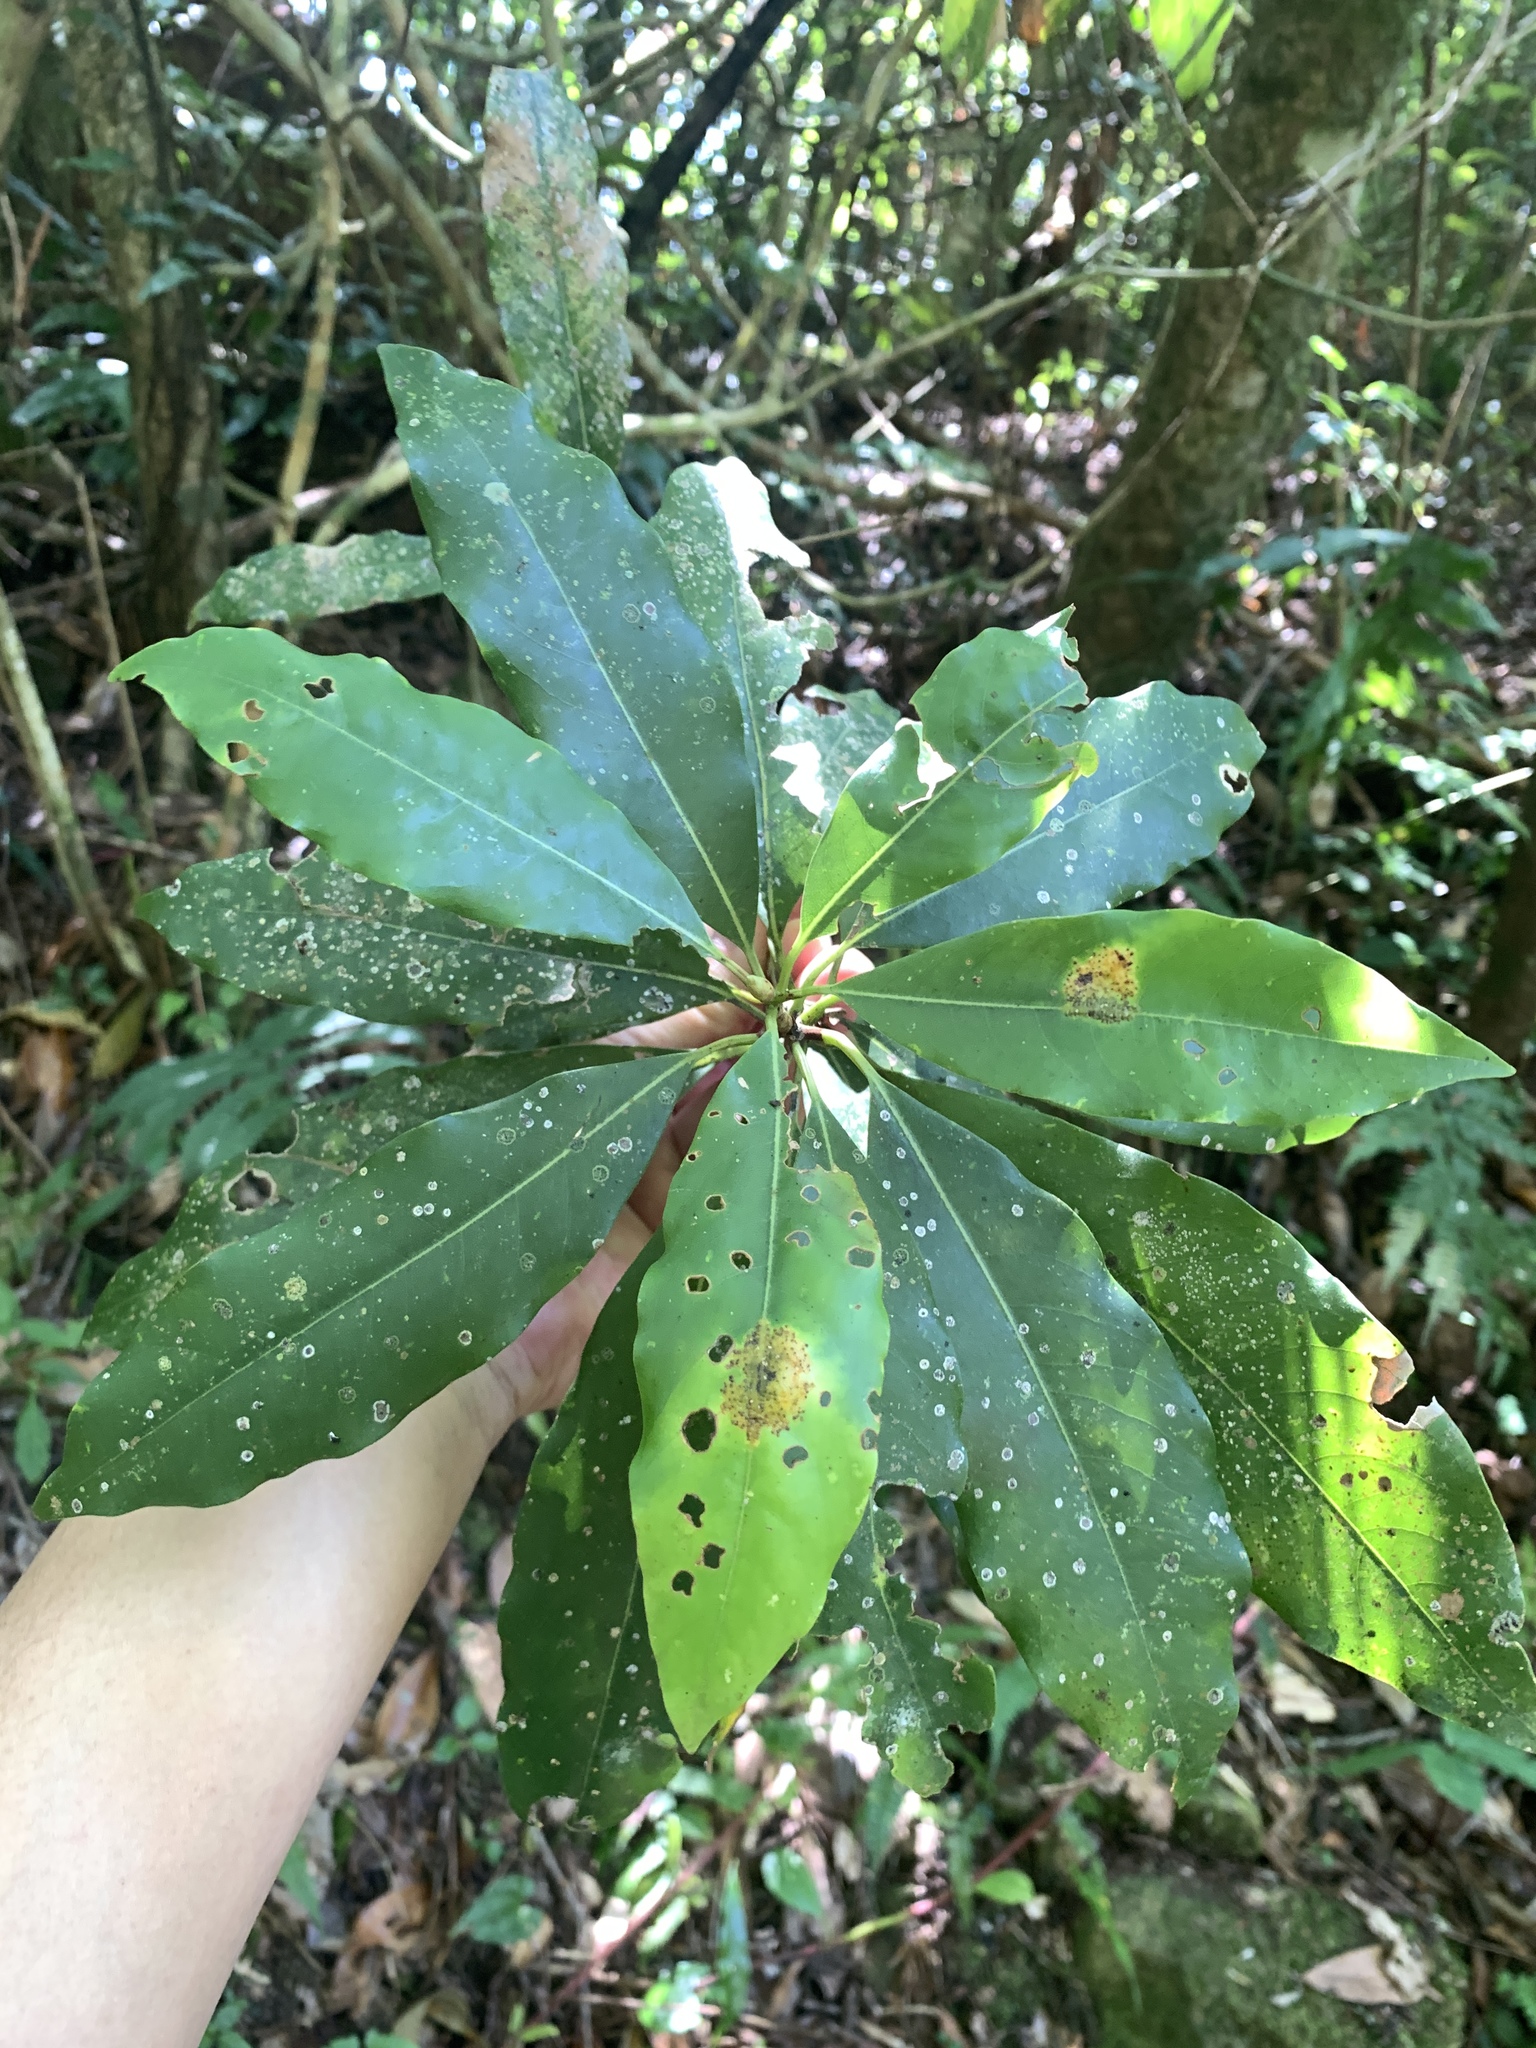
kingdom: Plantae
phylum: Tracheophyta
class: Magnoliopsida
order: Laurales
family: Lauraceae
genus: Machilus
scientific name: Machilus japonica
